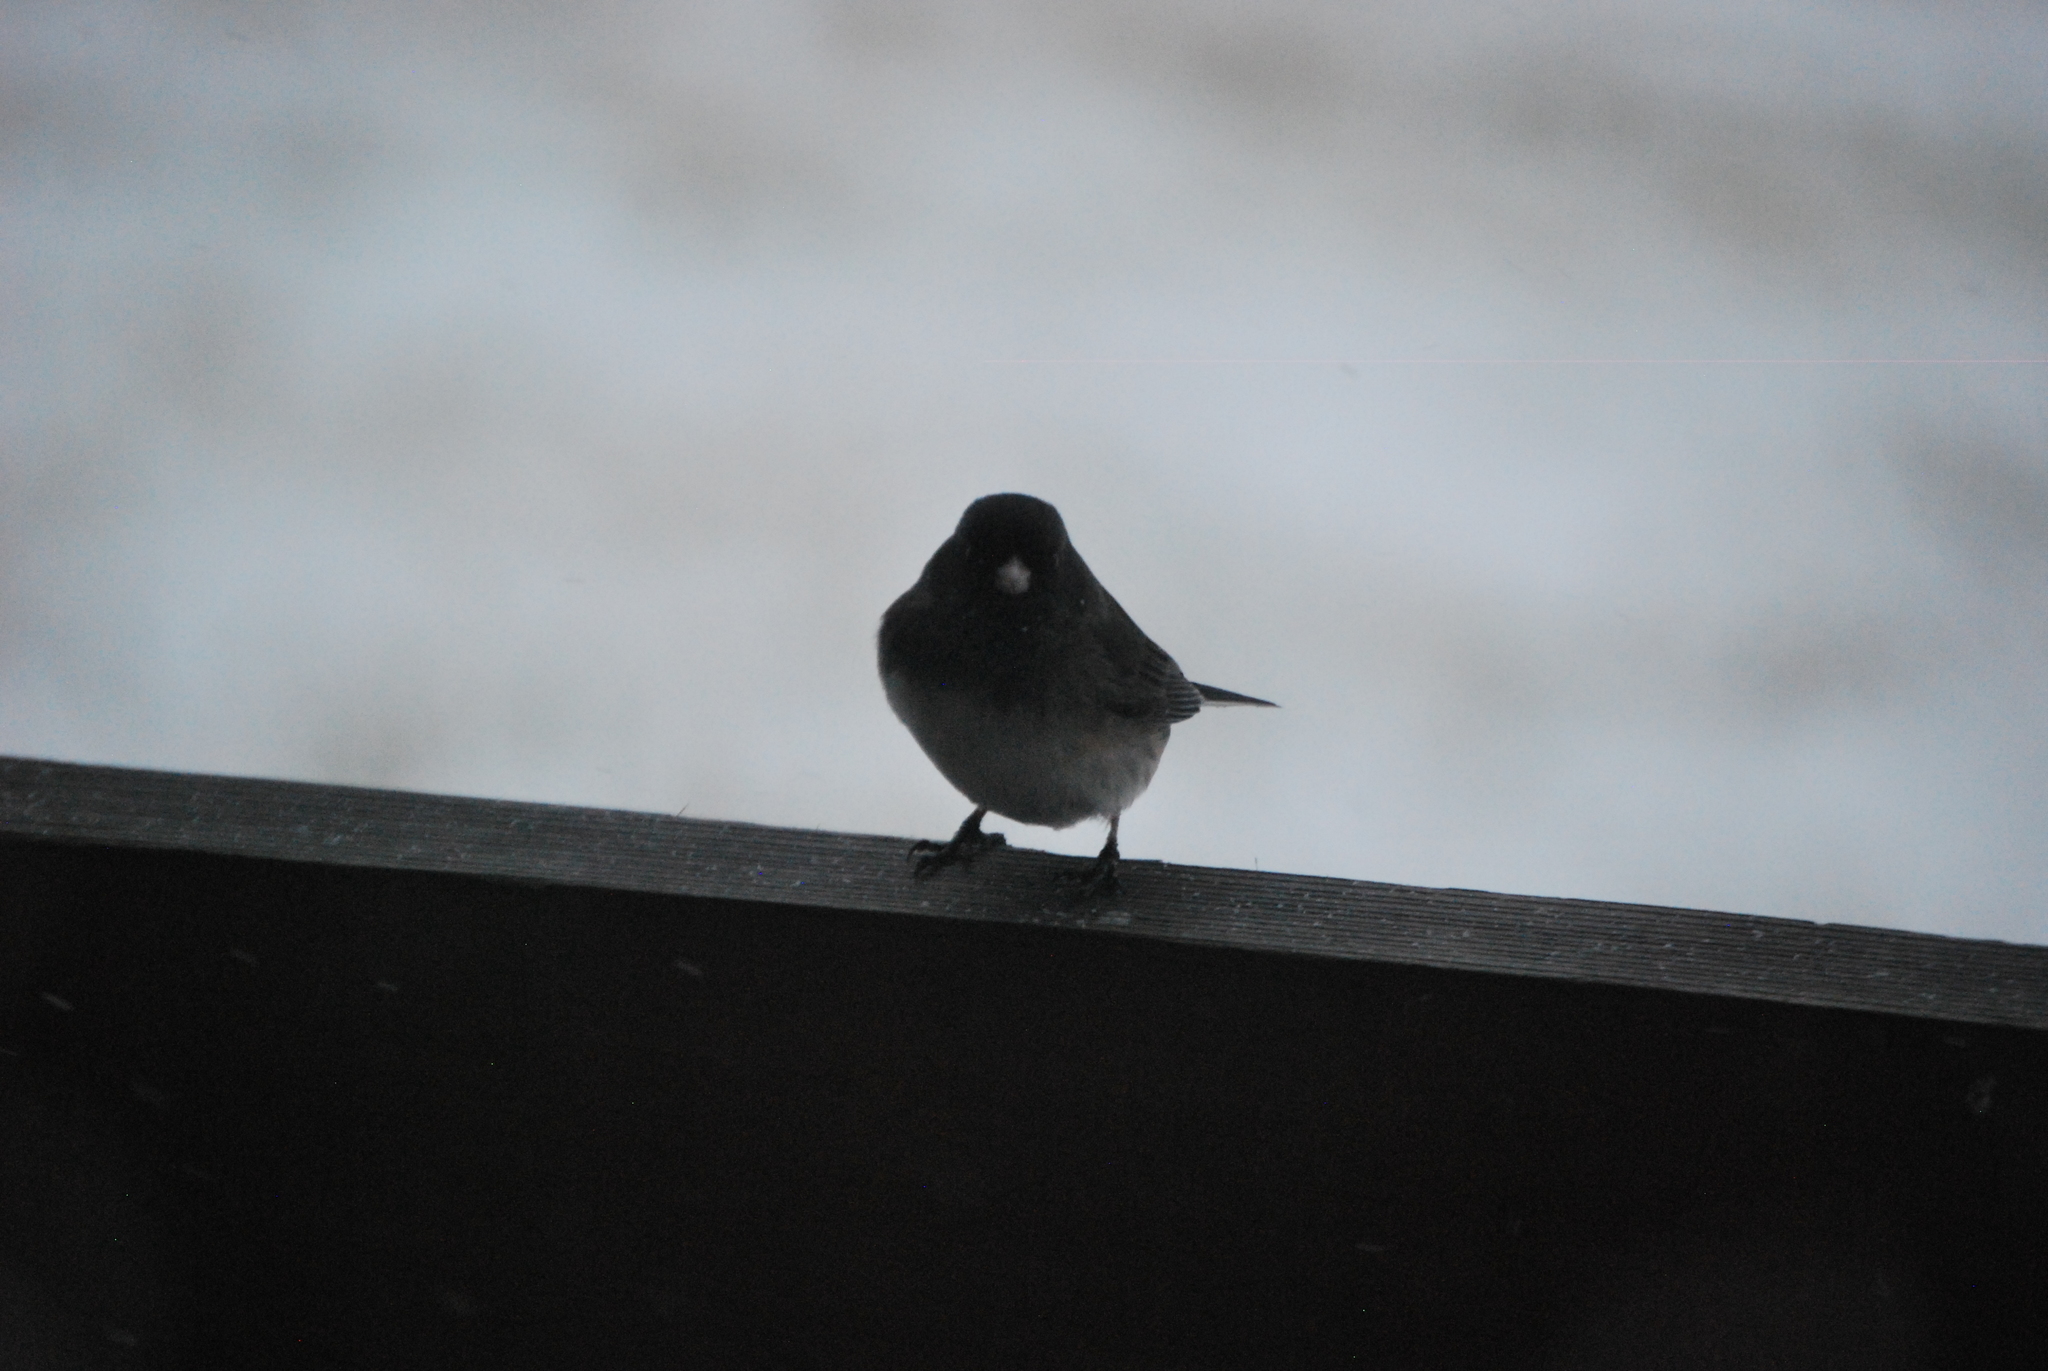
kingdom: Animalia
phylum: Chordata
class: Aves
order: Passeriformes
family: Passerellidae
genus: Junco
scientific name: Junco hyemalis
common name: Dark-eyed junco
